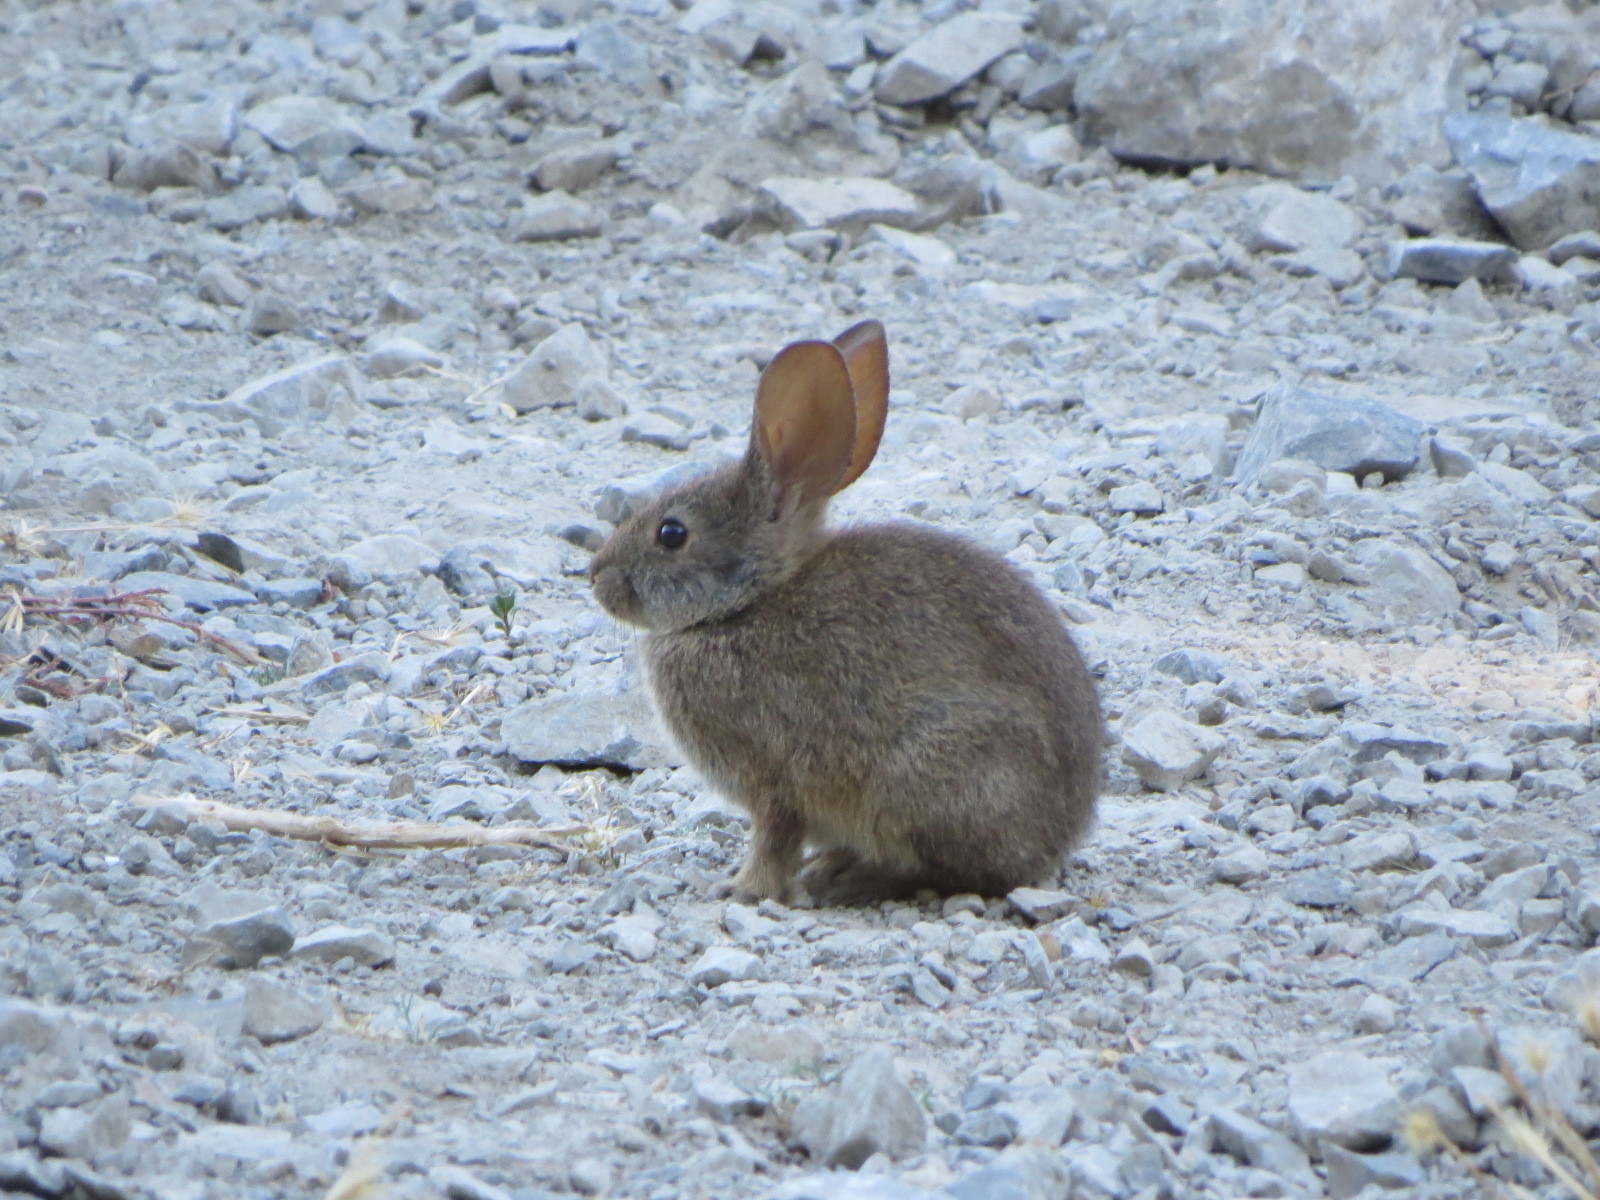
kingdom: Animalia
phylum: Chordata
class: Mammalia
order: Lagomorpha
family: Leporidae
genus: Sylvilagus
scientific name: Sylvilagus bachmani
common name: Brush rabbit
